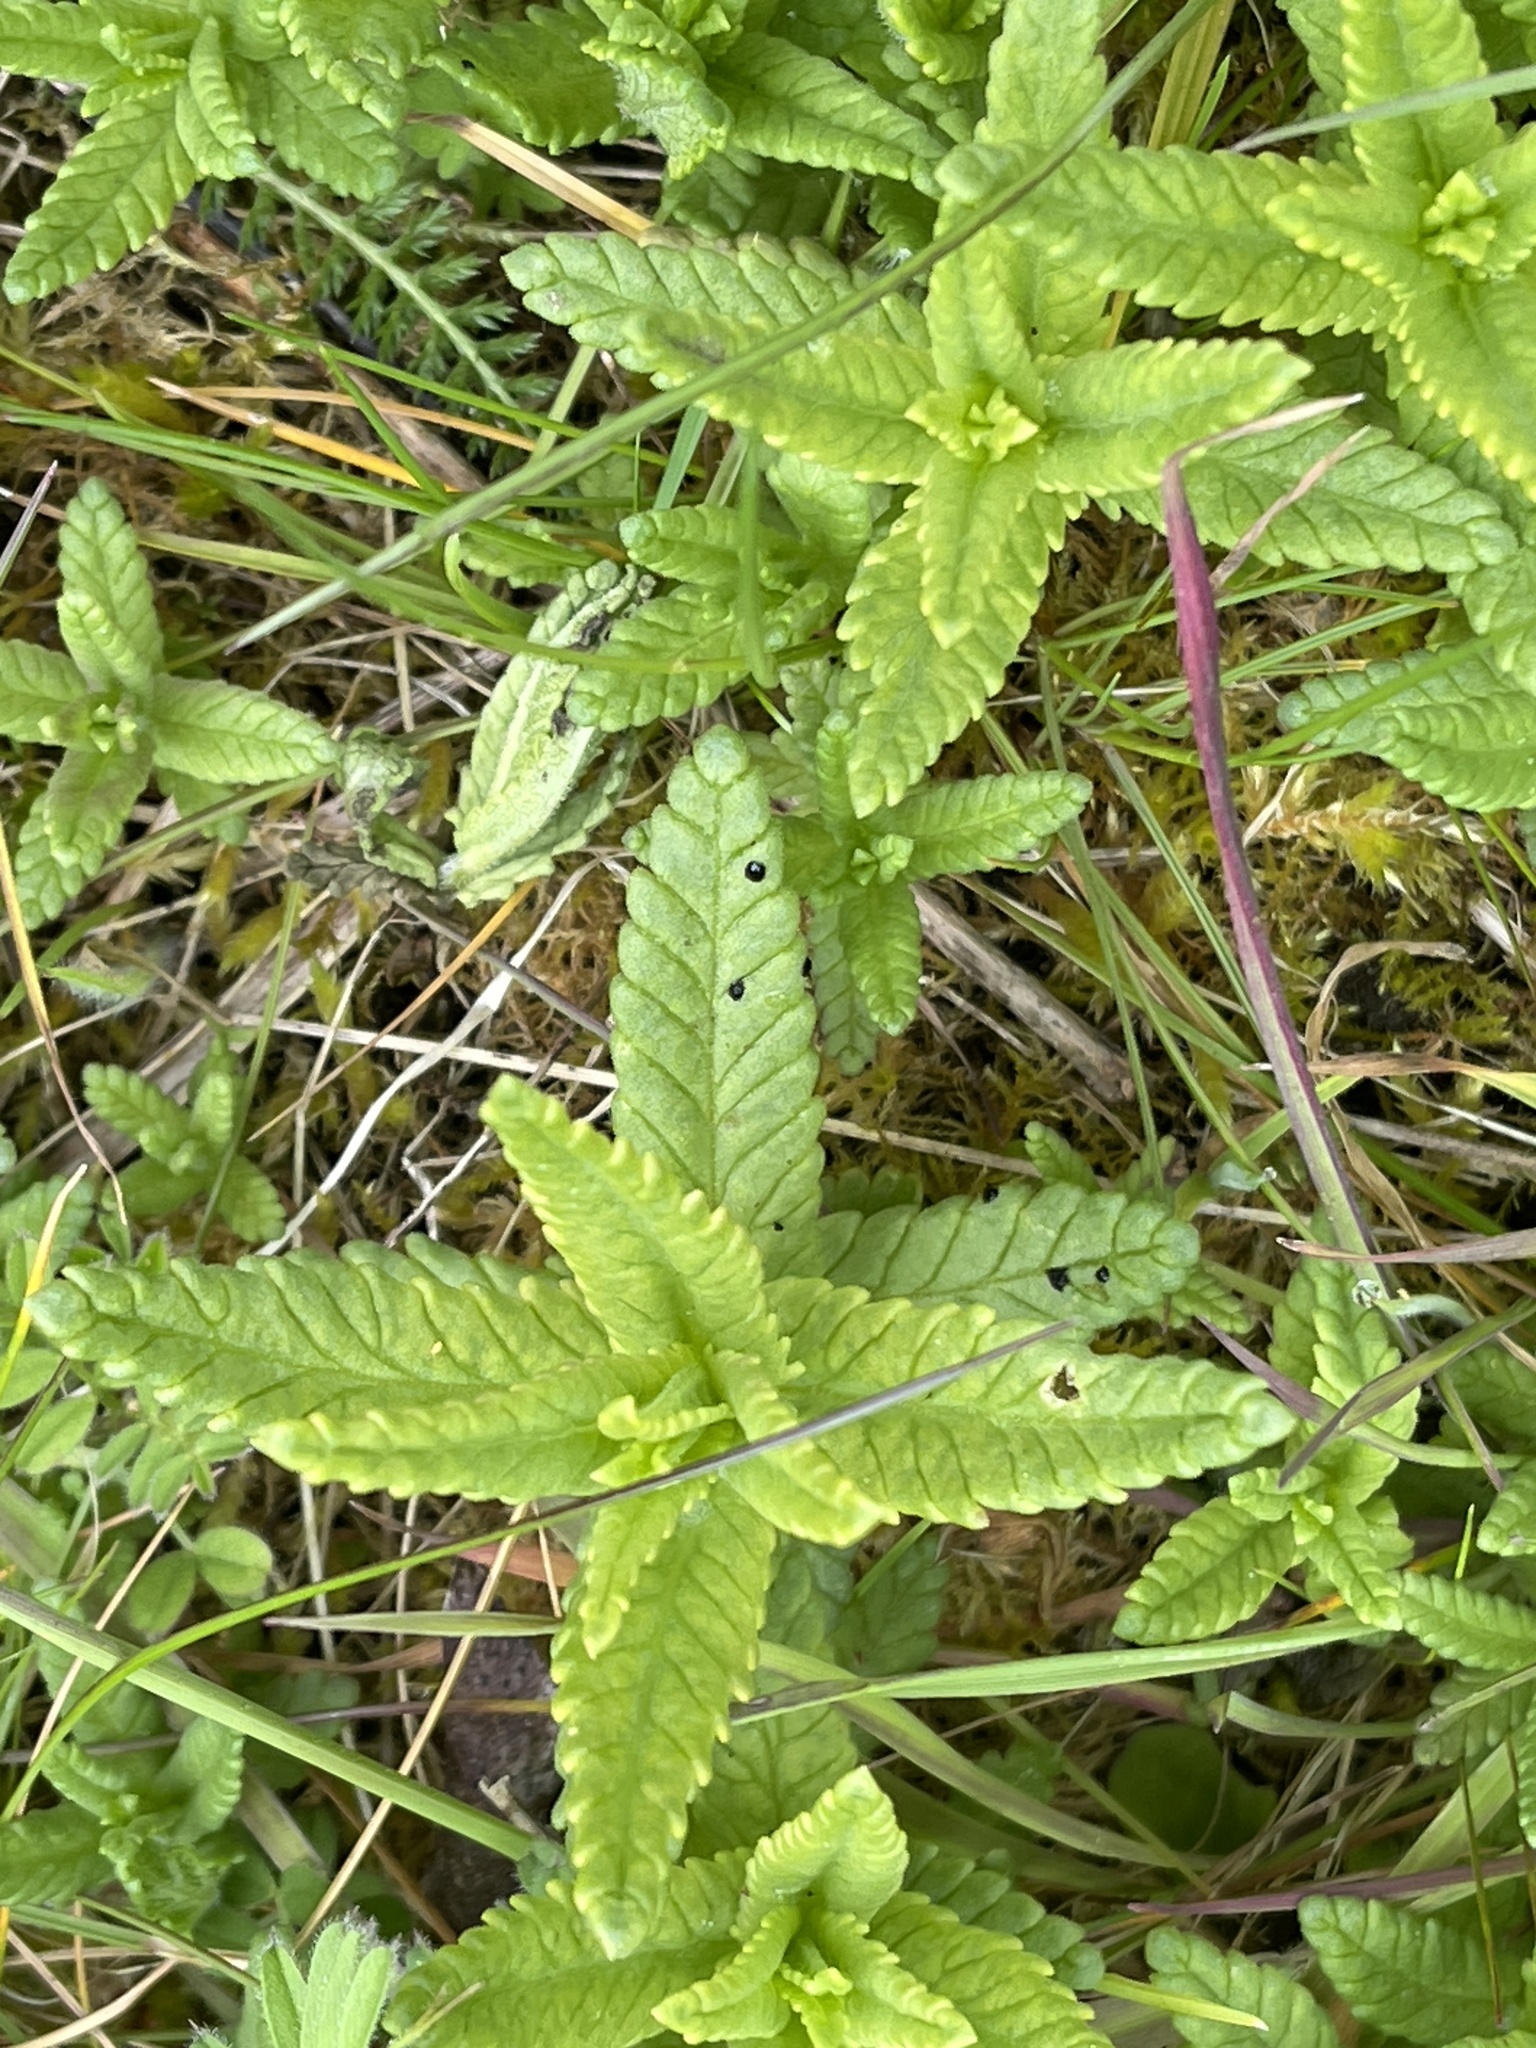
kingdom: Plantae
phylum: Tracheophyta
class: Magnoliopsida
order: Lamiales
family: Orobanchaceae
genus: Rhinanthus
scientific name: Rhinanthus minor
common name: Yellow-rattle
